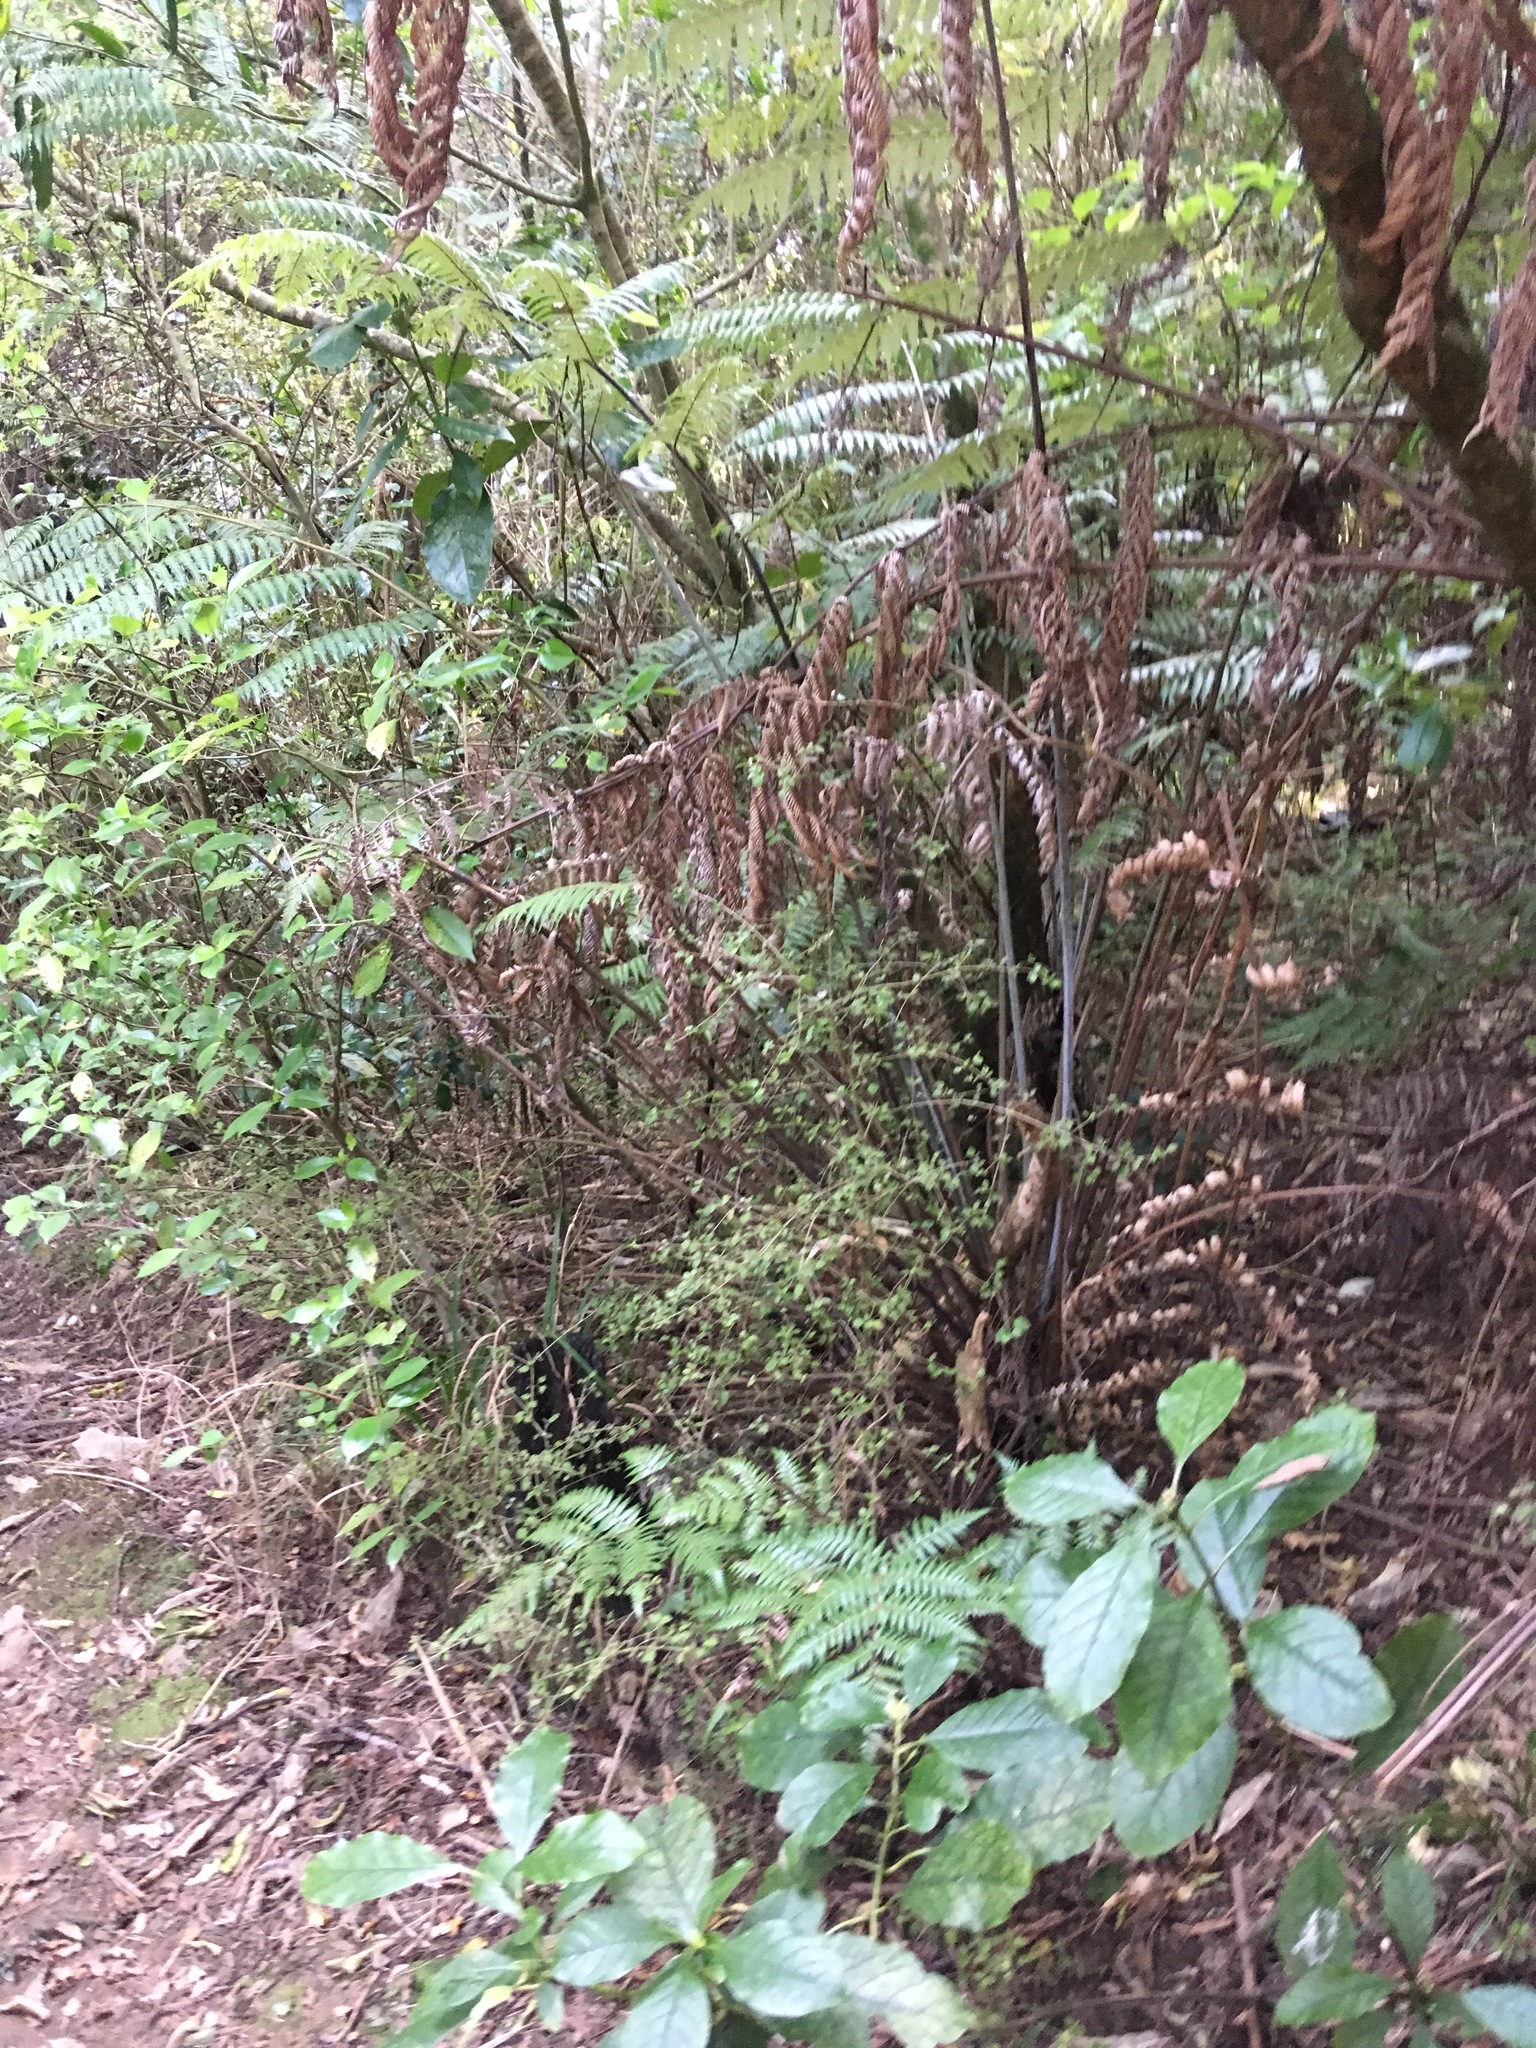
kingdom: Plantae
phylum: Tracheophyta
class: Magnoliopsida
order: Gentianales
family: Rubiaceae
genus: Coprosma
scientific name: Coprosma autumnalis
